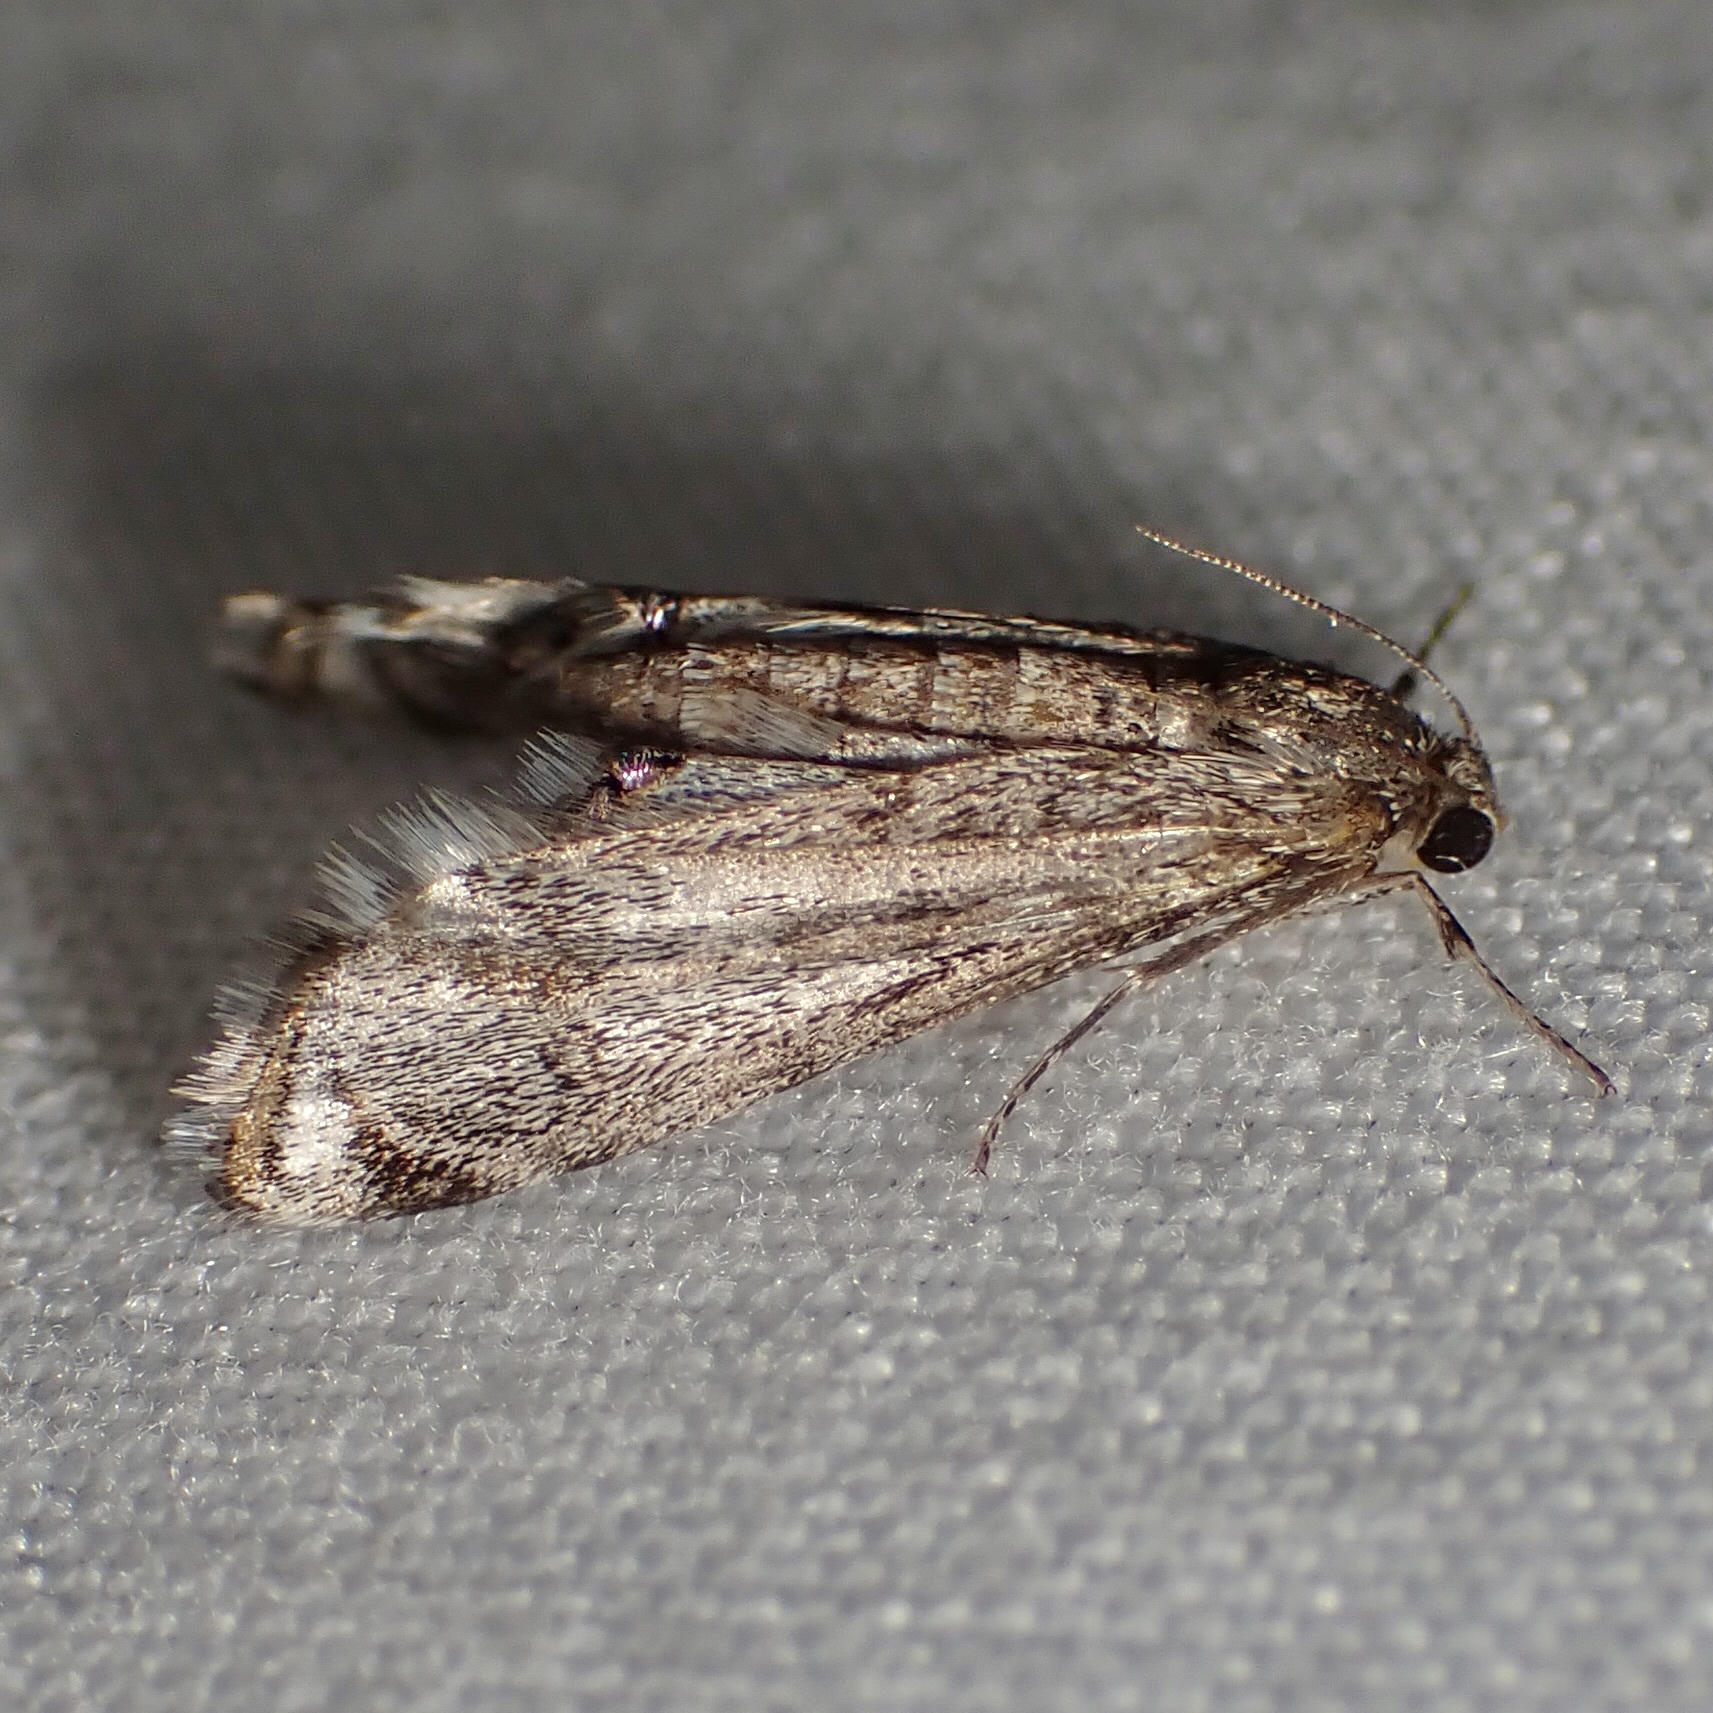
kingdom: Animalia
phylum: Arthropoda
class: Insecta
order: Lepidoptera
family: Crambidae
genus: Petrophila
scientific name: Petrophila schaefferalis
